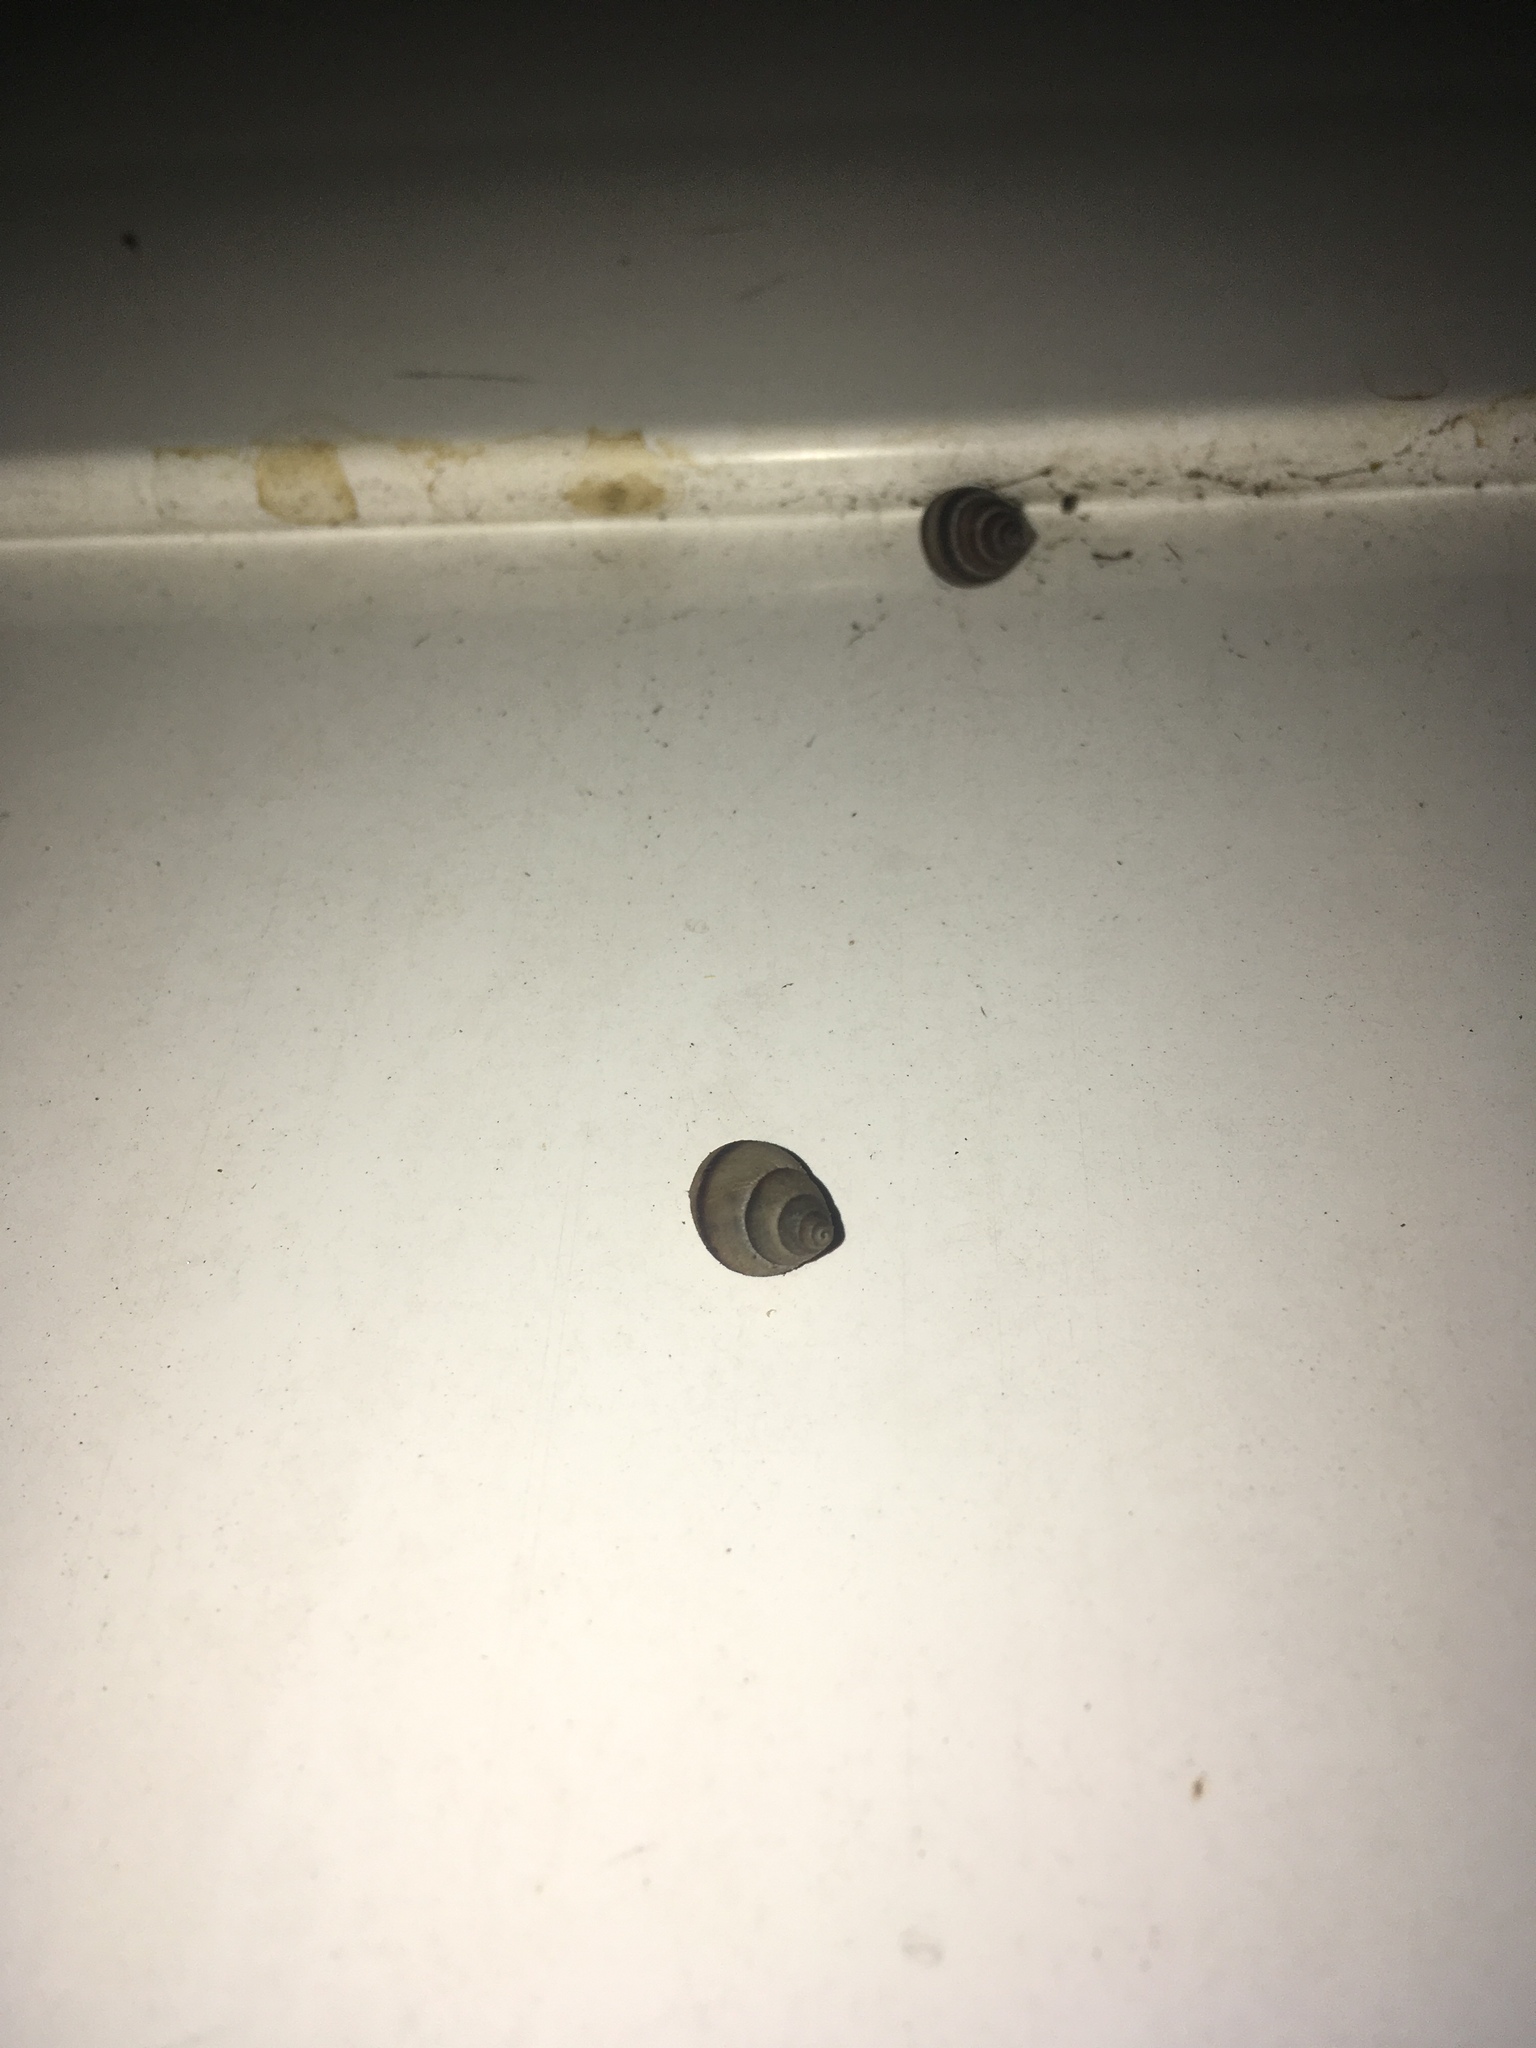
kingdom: Animalia
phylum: Mollusca
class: Gastropoda
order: Stylommatophora
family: Bulimulidae
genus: Bulimulus
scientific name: Bulimulus guadalupensis
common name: West indian bulimulus
